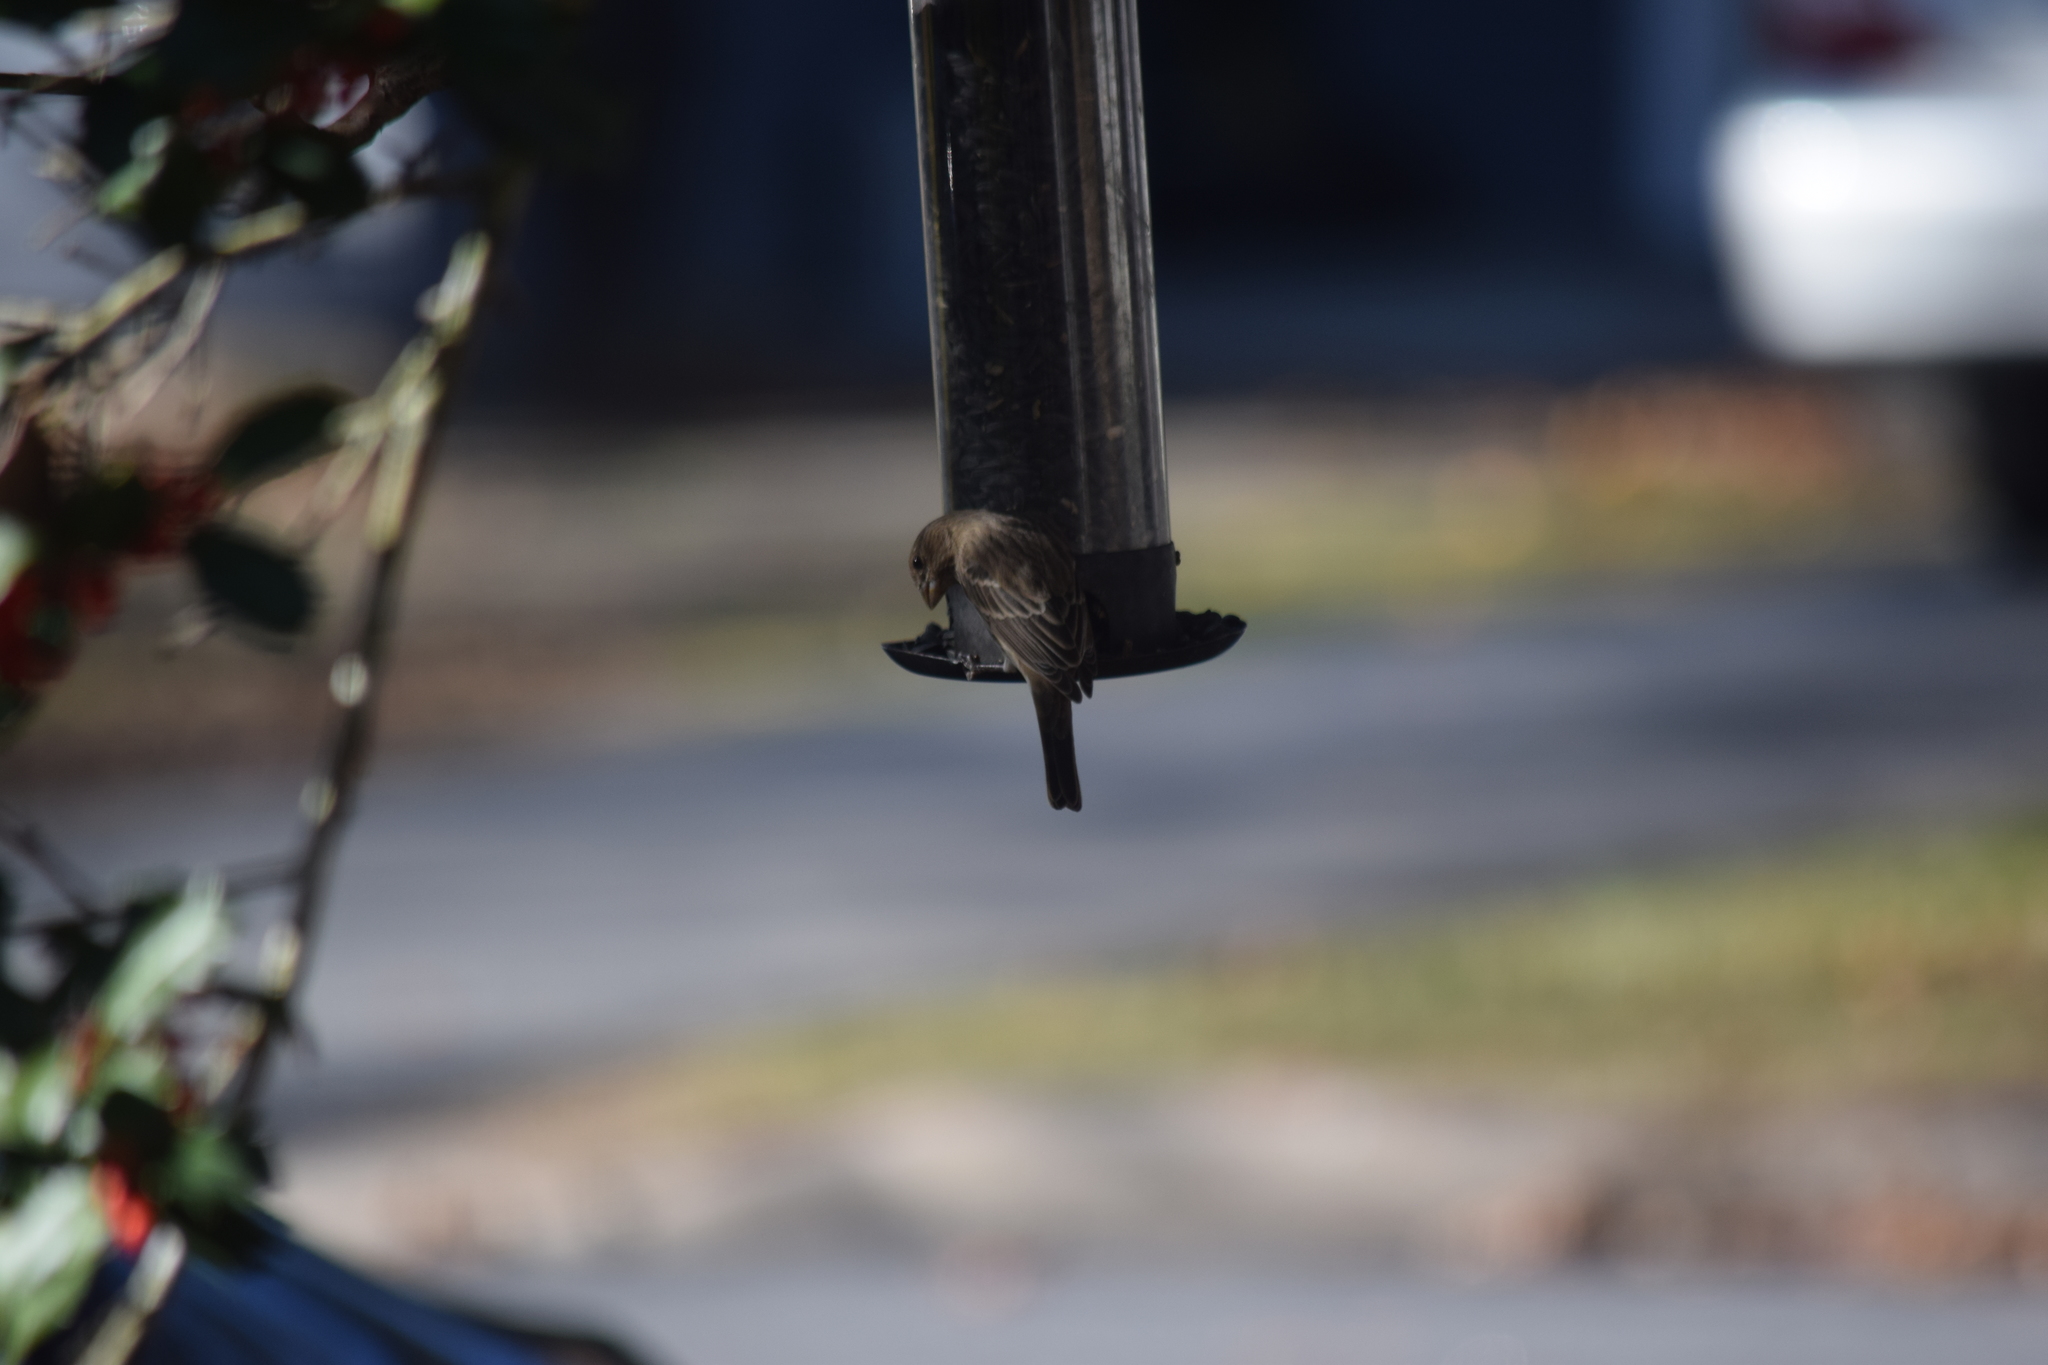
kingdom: Animalia
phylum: Chordata
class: Aves
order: Passeriformes
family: Fringillidae
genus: Haemorhous
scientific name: Haemorhous mexicanus
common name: House finch
